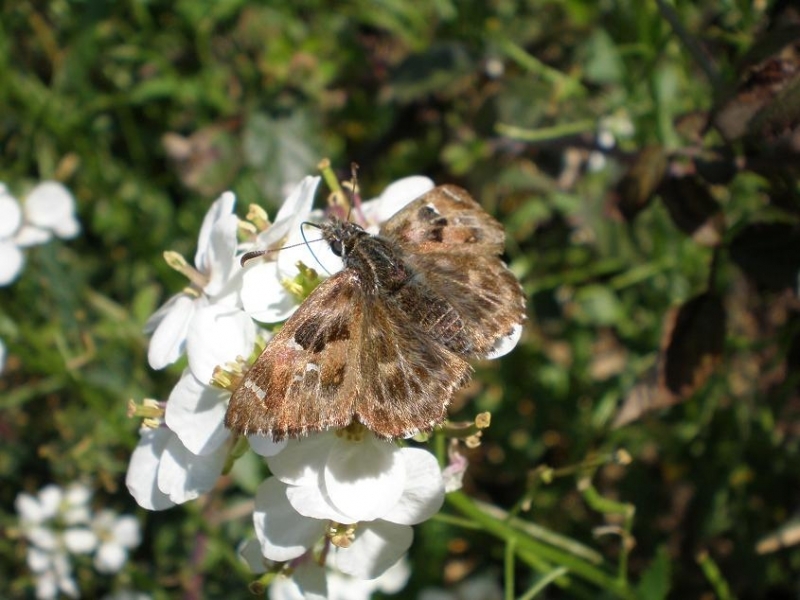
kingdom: Animalia
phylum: Arthropoda
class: Insecta
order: Lepidoptera
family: Hesperiidae
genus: Carcharodus
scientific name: Carcharodus alceae
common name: Mallow skipper
